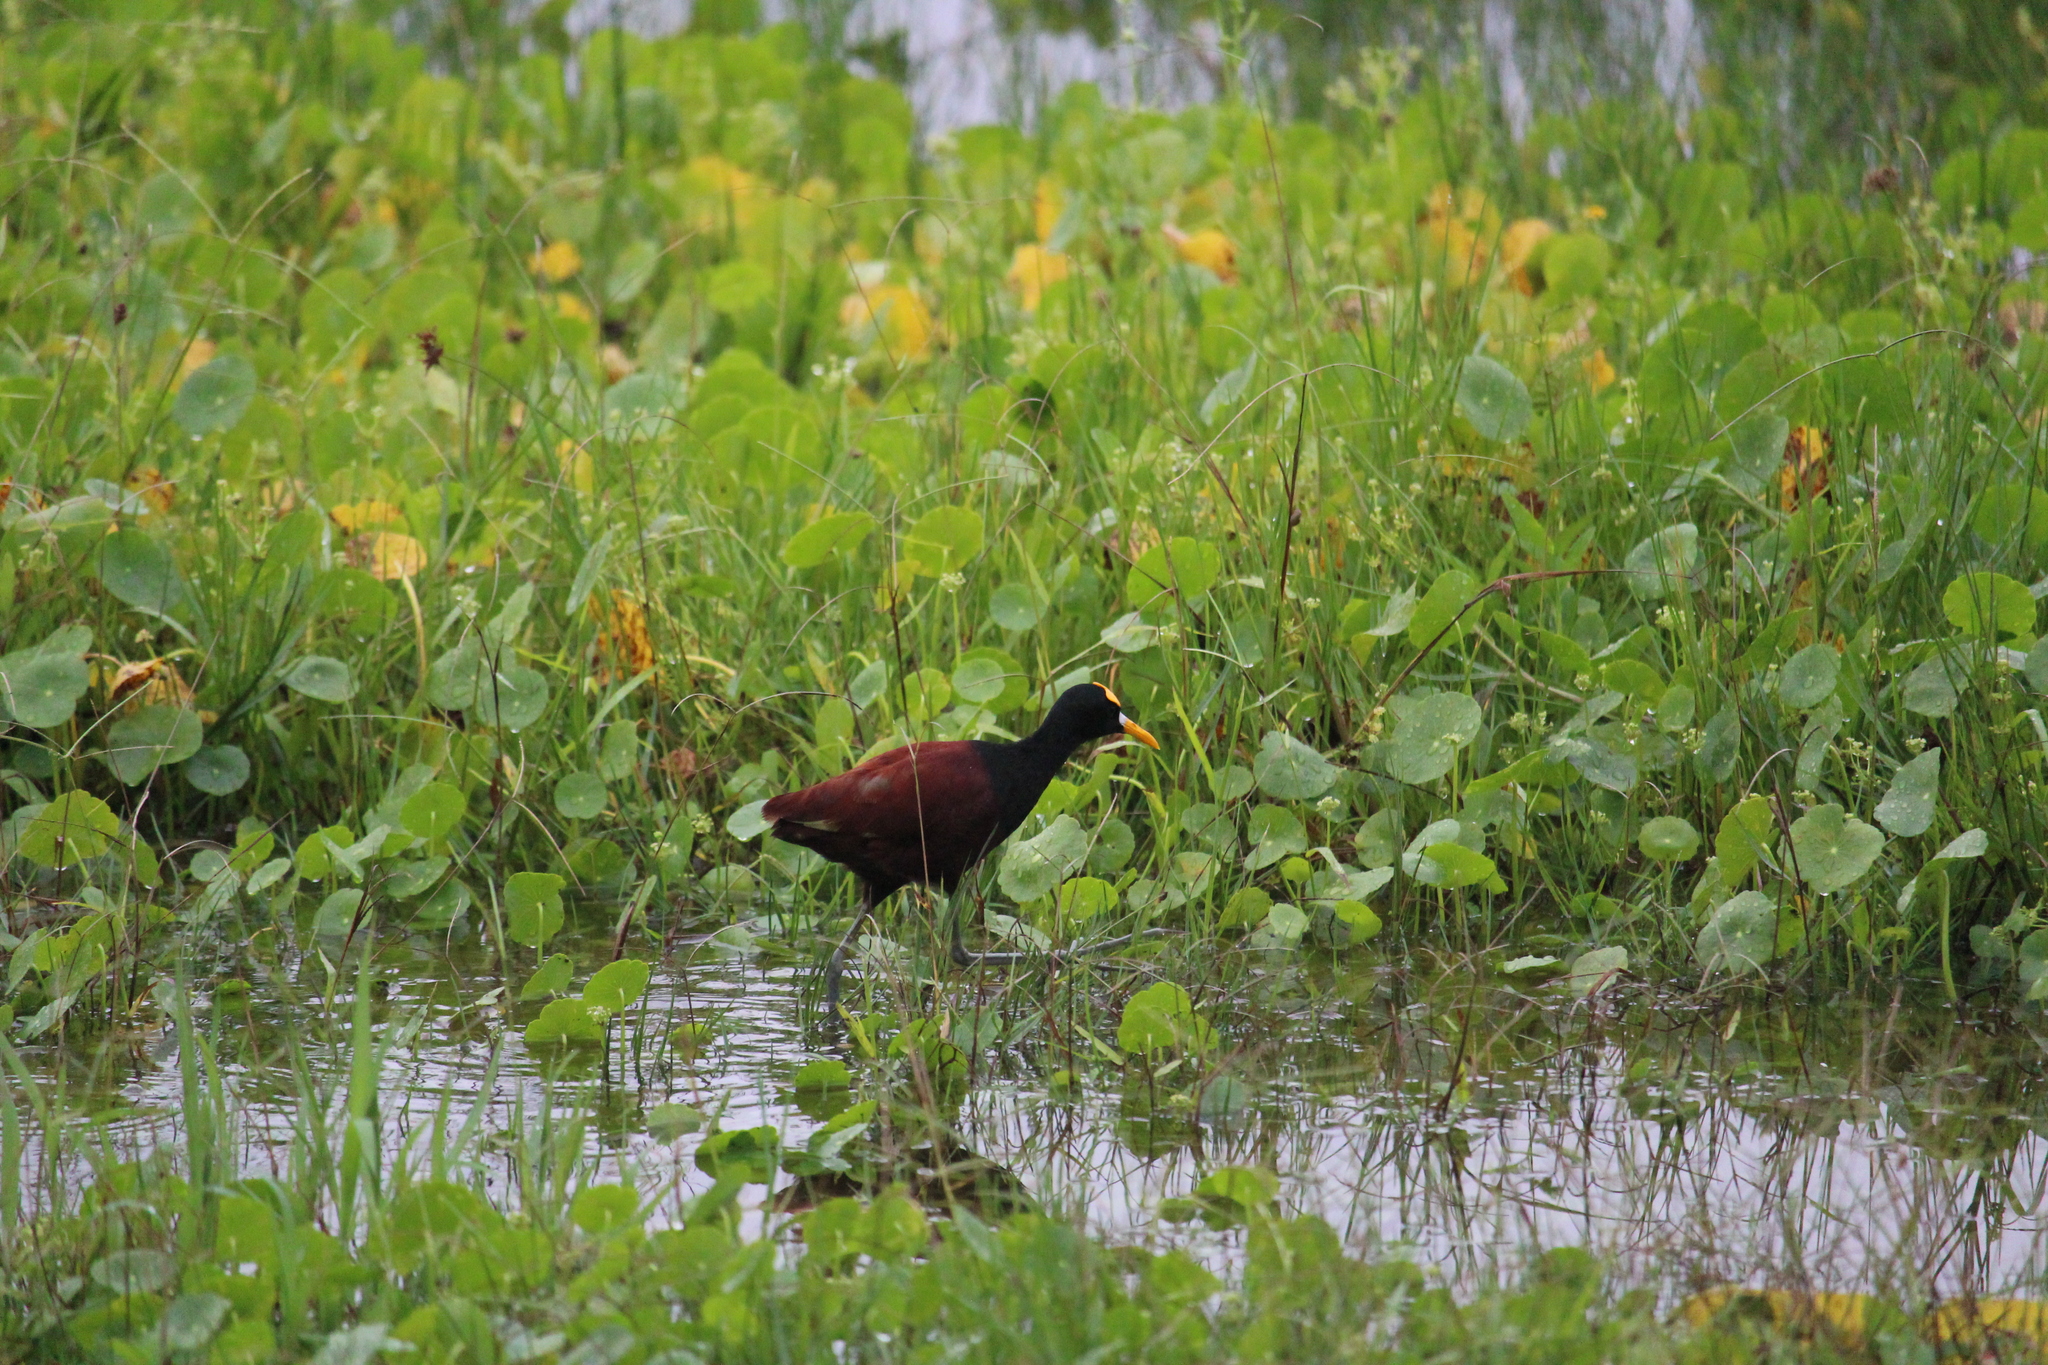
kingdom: Animalia
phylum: Chordata
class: Aves
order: Charadriiformes
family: Jacanidae
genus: Jacana
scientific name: Jacana spinosa
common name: Northern jacana
